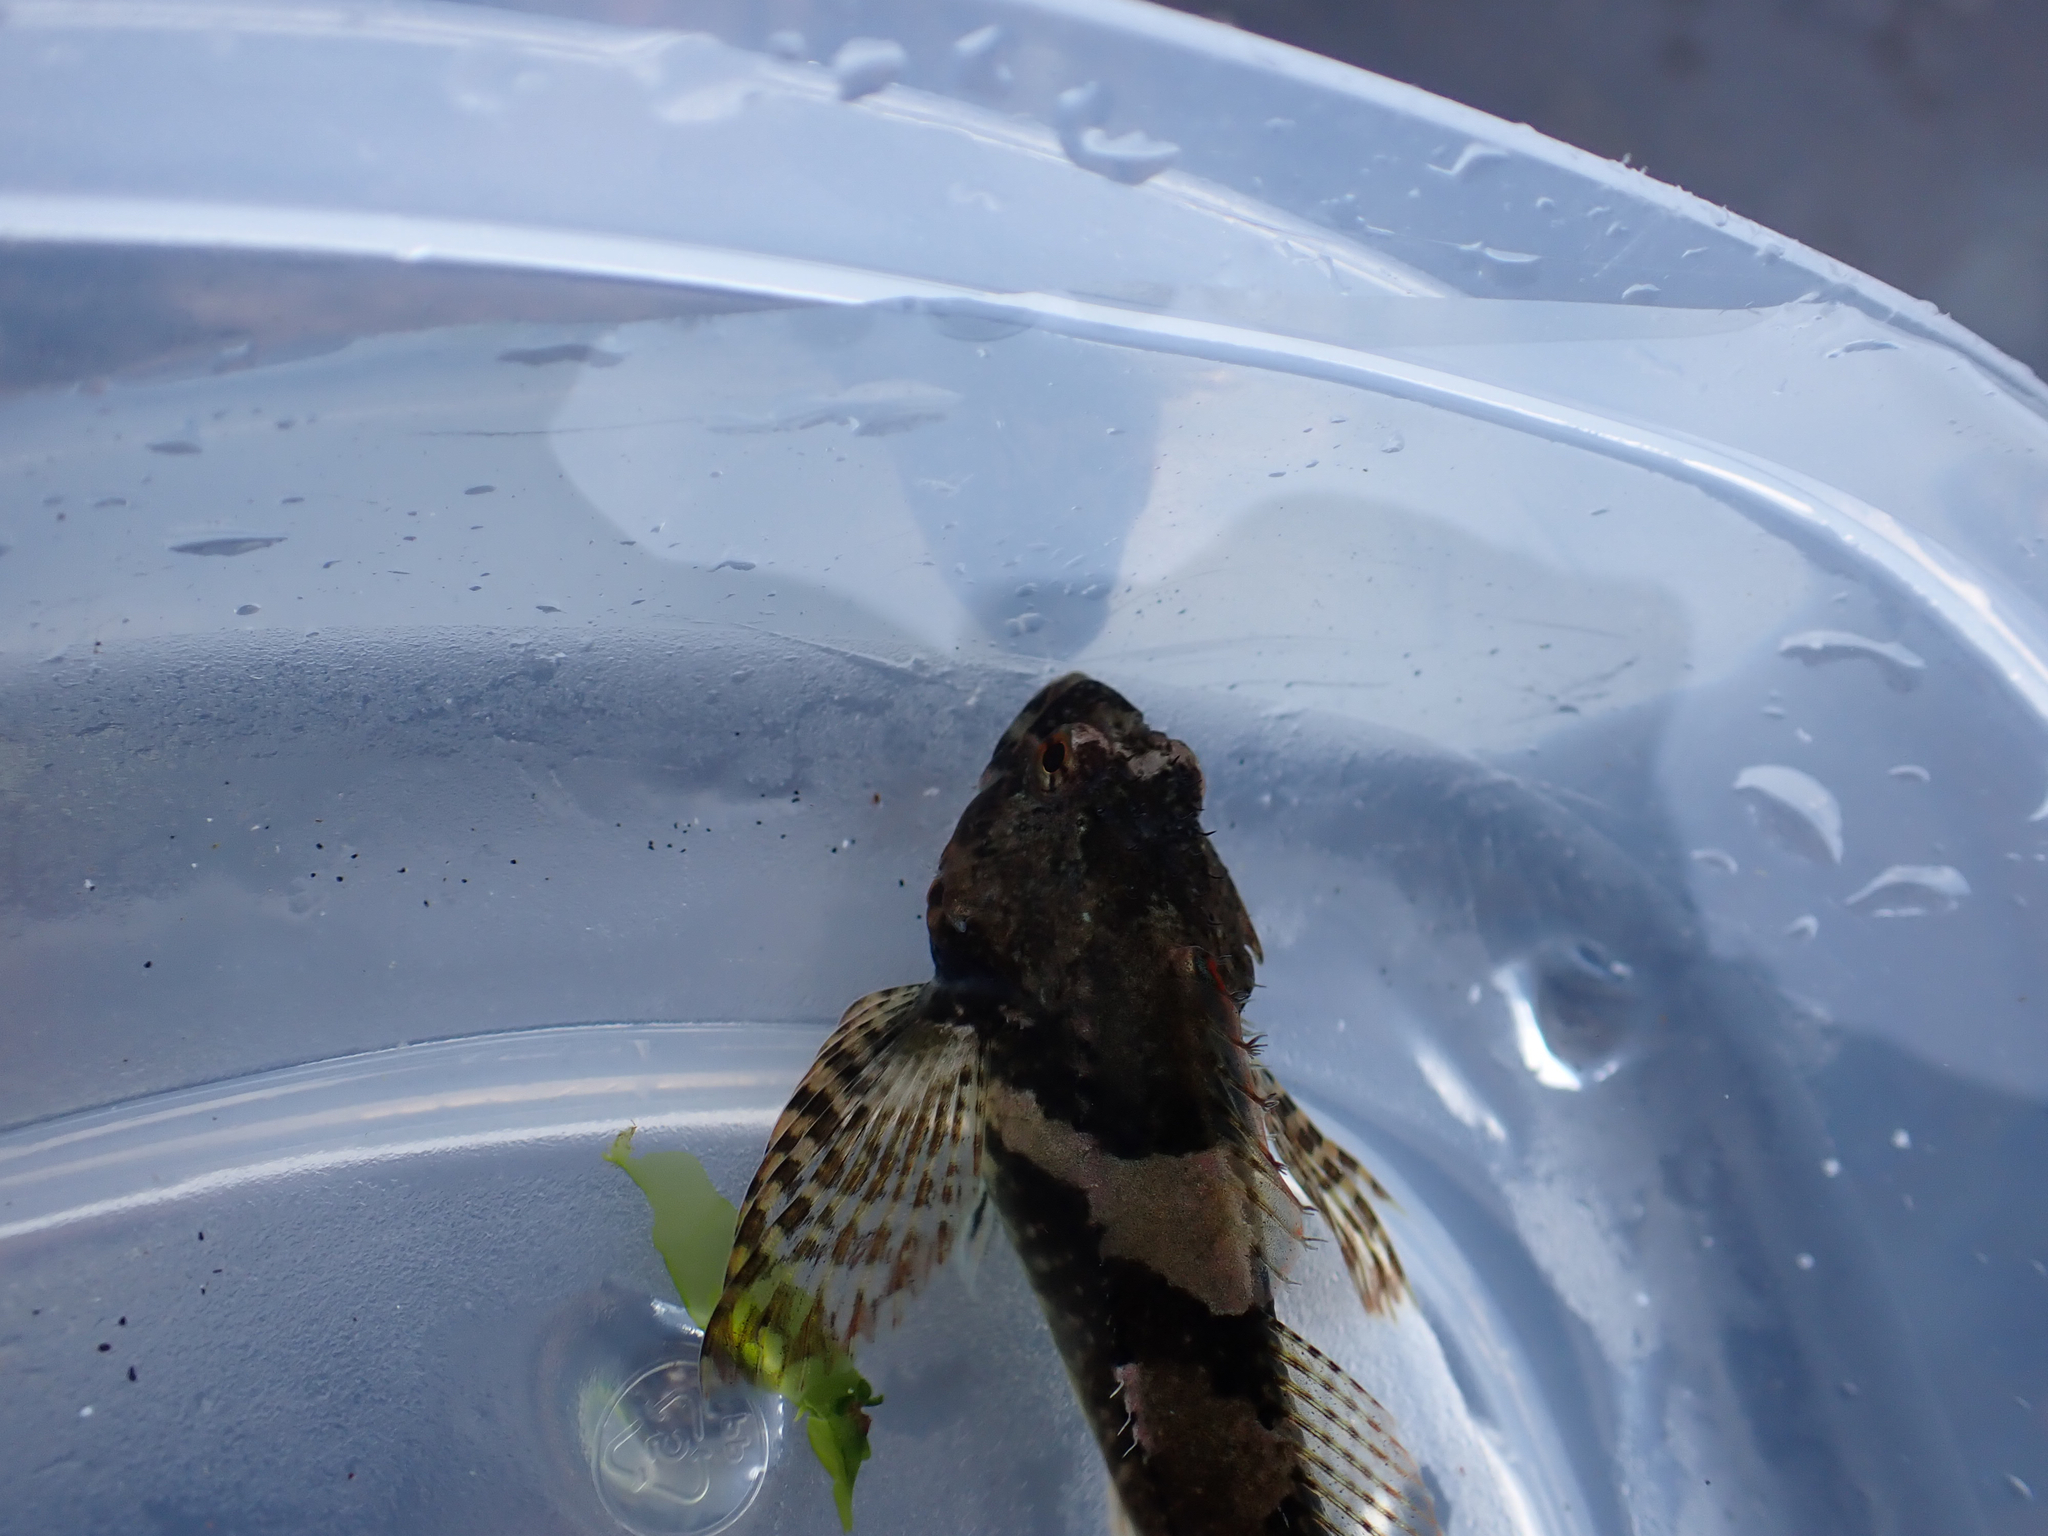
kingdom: Animalia
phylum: Chordata
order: Scorpaeniformes
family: Cottidae
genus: Oligocottus
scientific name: Oligocottus maculosus
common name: Tidepool sculpin
